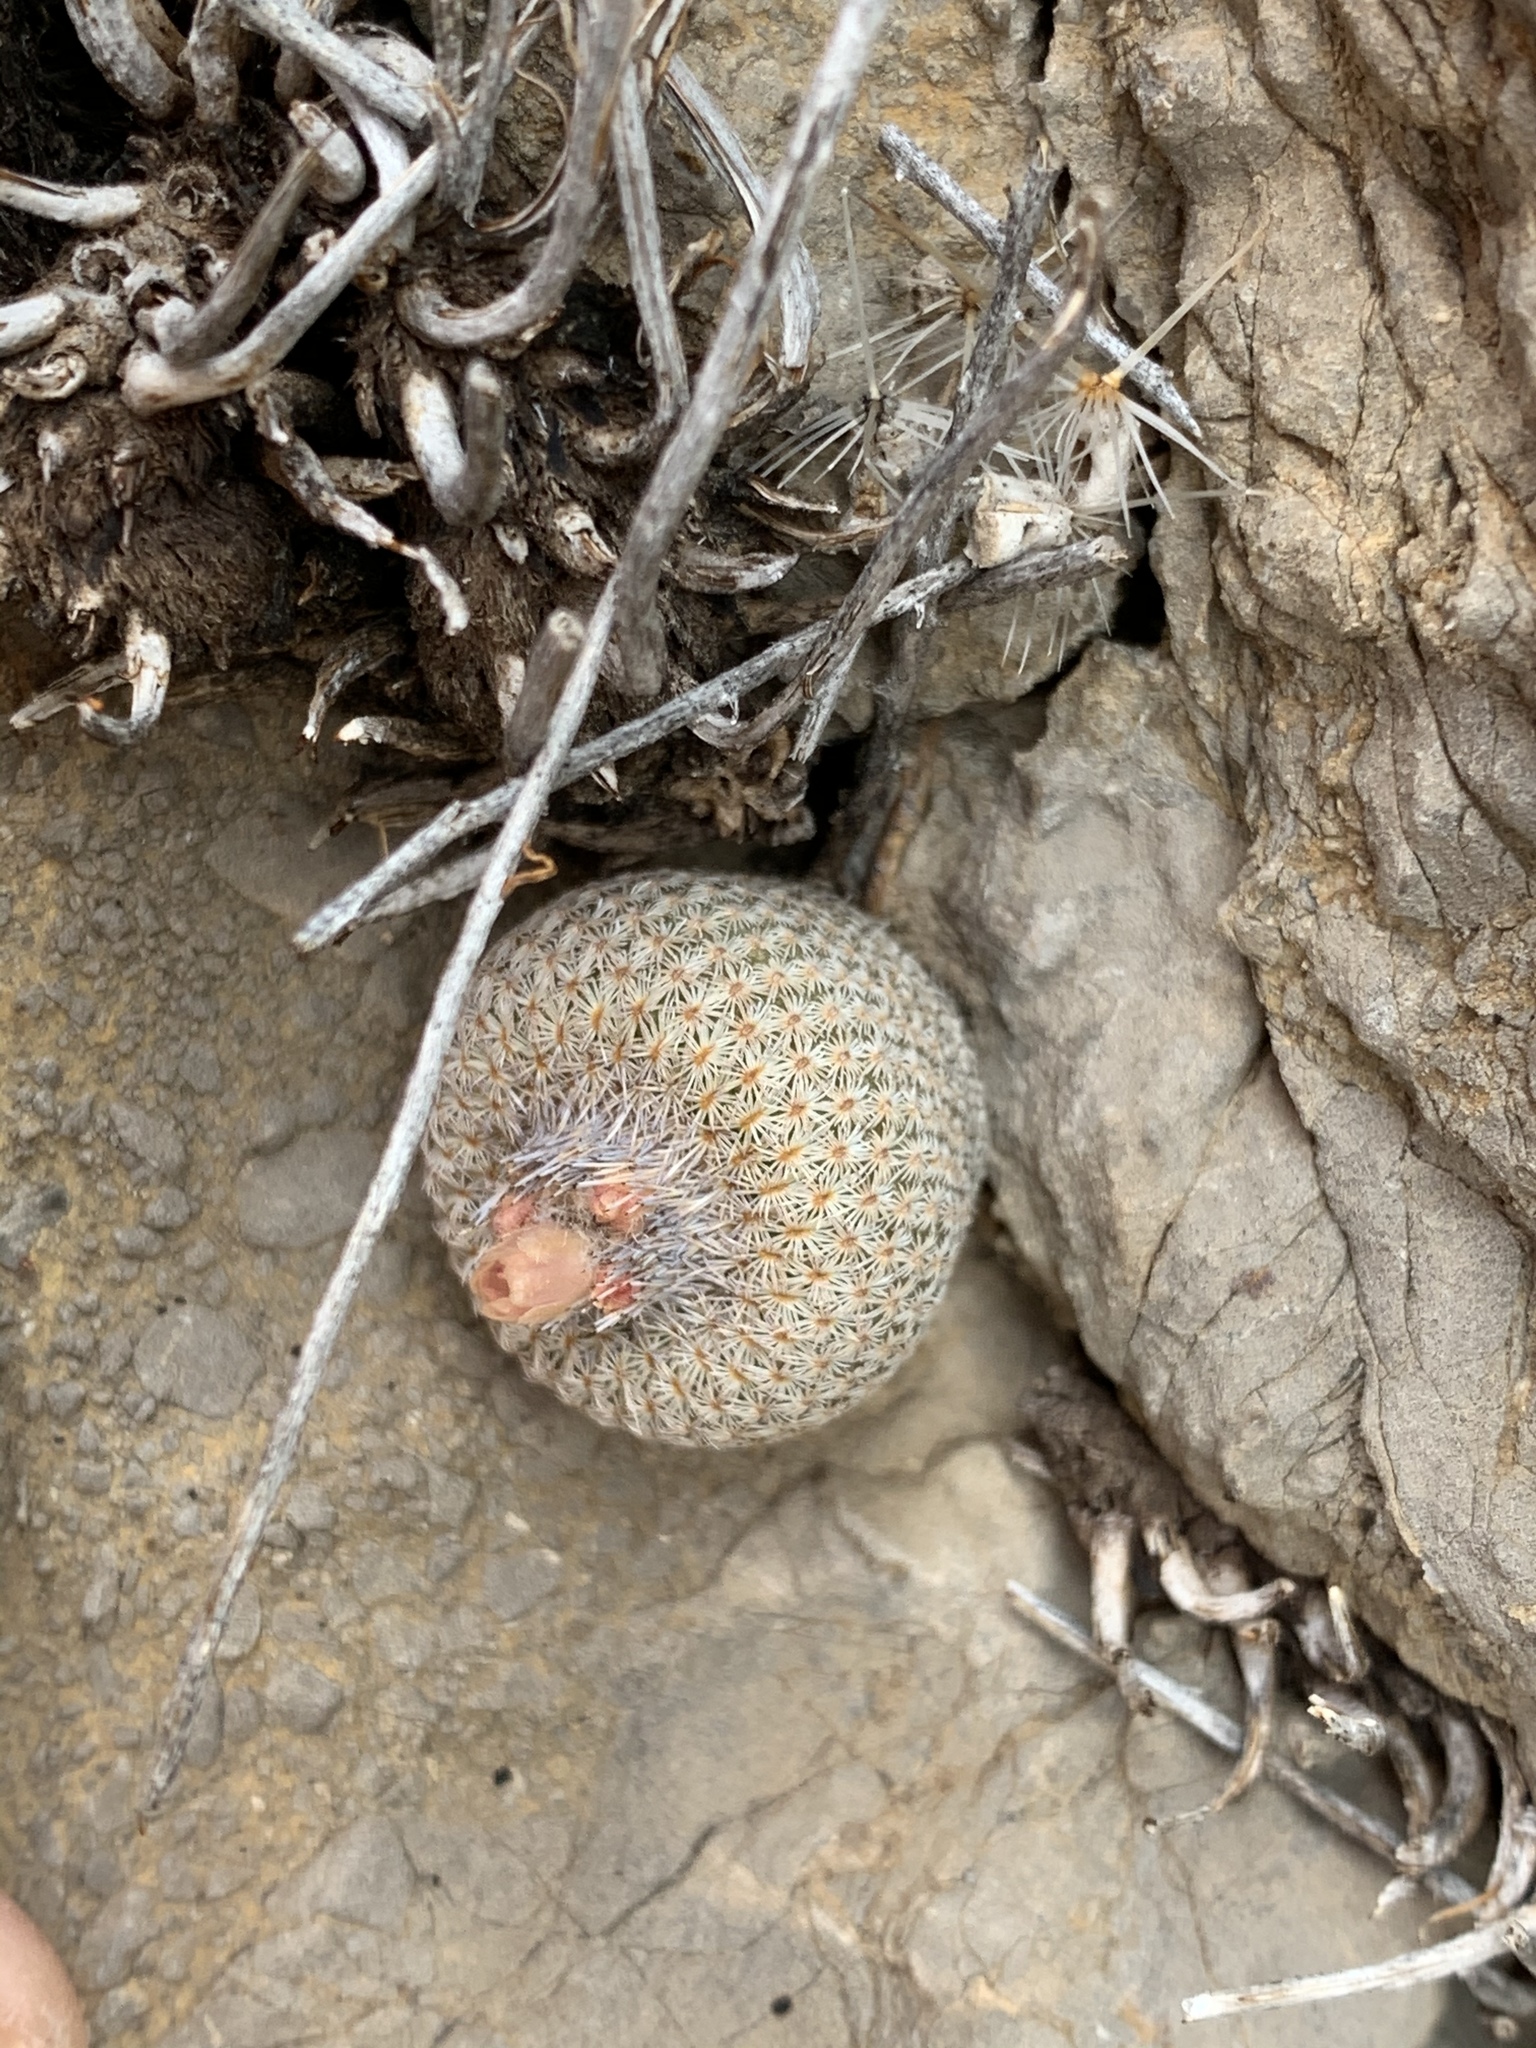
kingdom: Plantae
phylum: Tracheophyta
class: Magnoliopsida
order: Caryophyllales
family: Cactaceae
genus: Epithelantha
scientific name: Epithelantha micromeris
